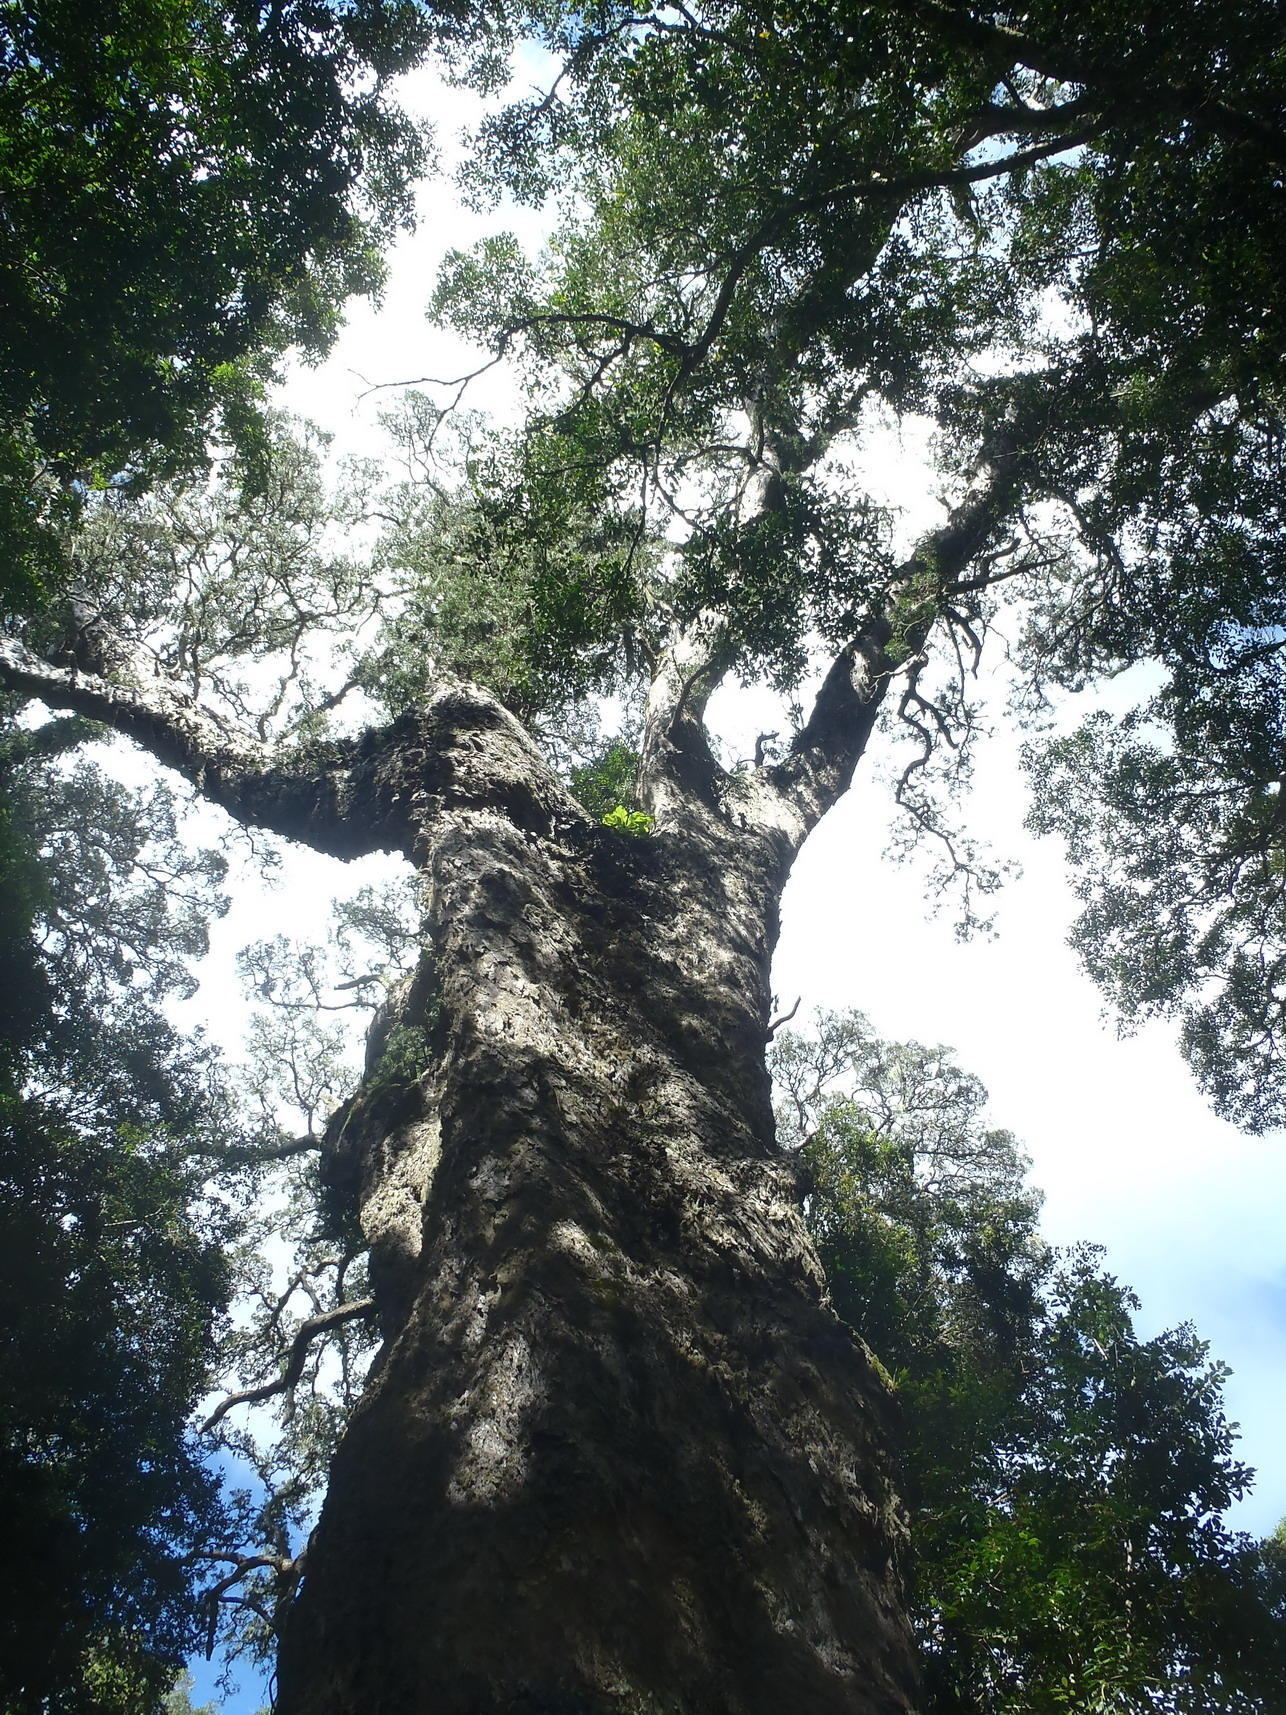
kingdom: Plantae
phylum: Tracheophyta
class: Pinopsida
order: Pinales
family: Podocarpaceae
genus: Afrocarpus
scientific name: Afrocarpus falcatus
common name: Bastard yellowwood
